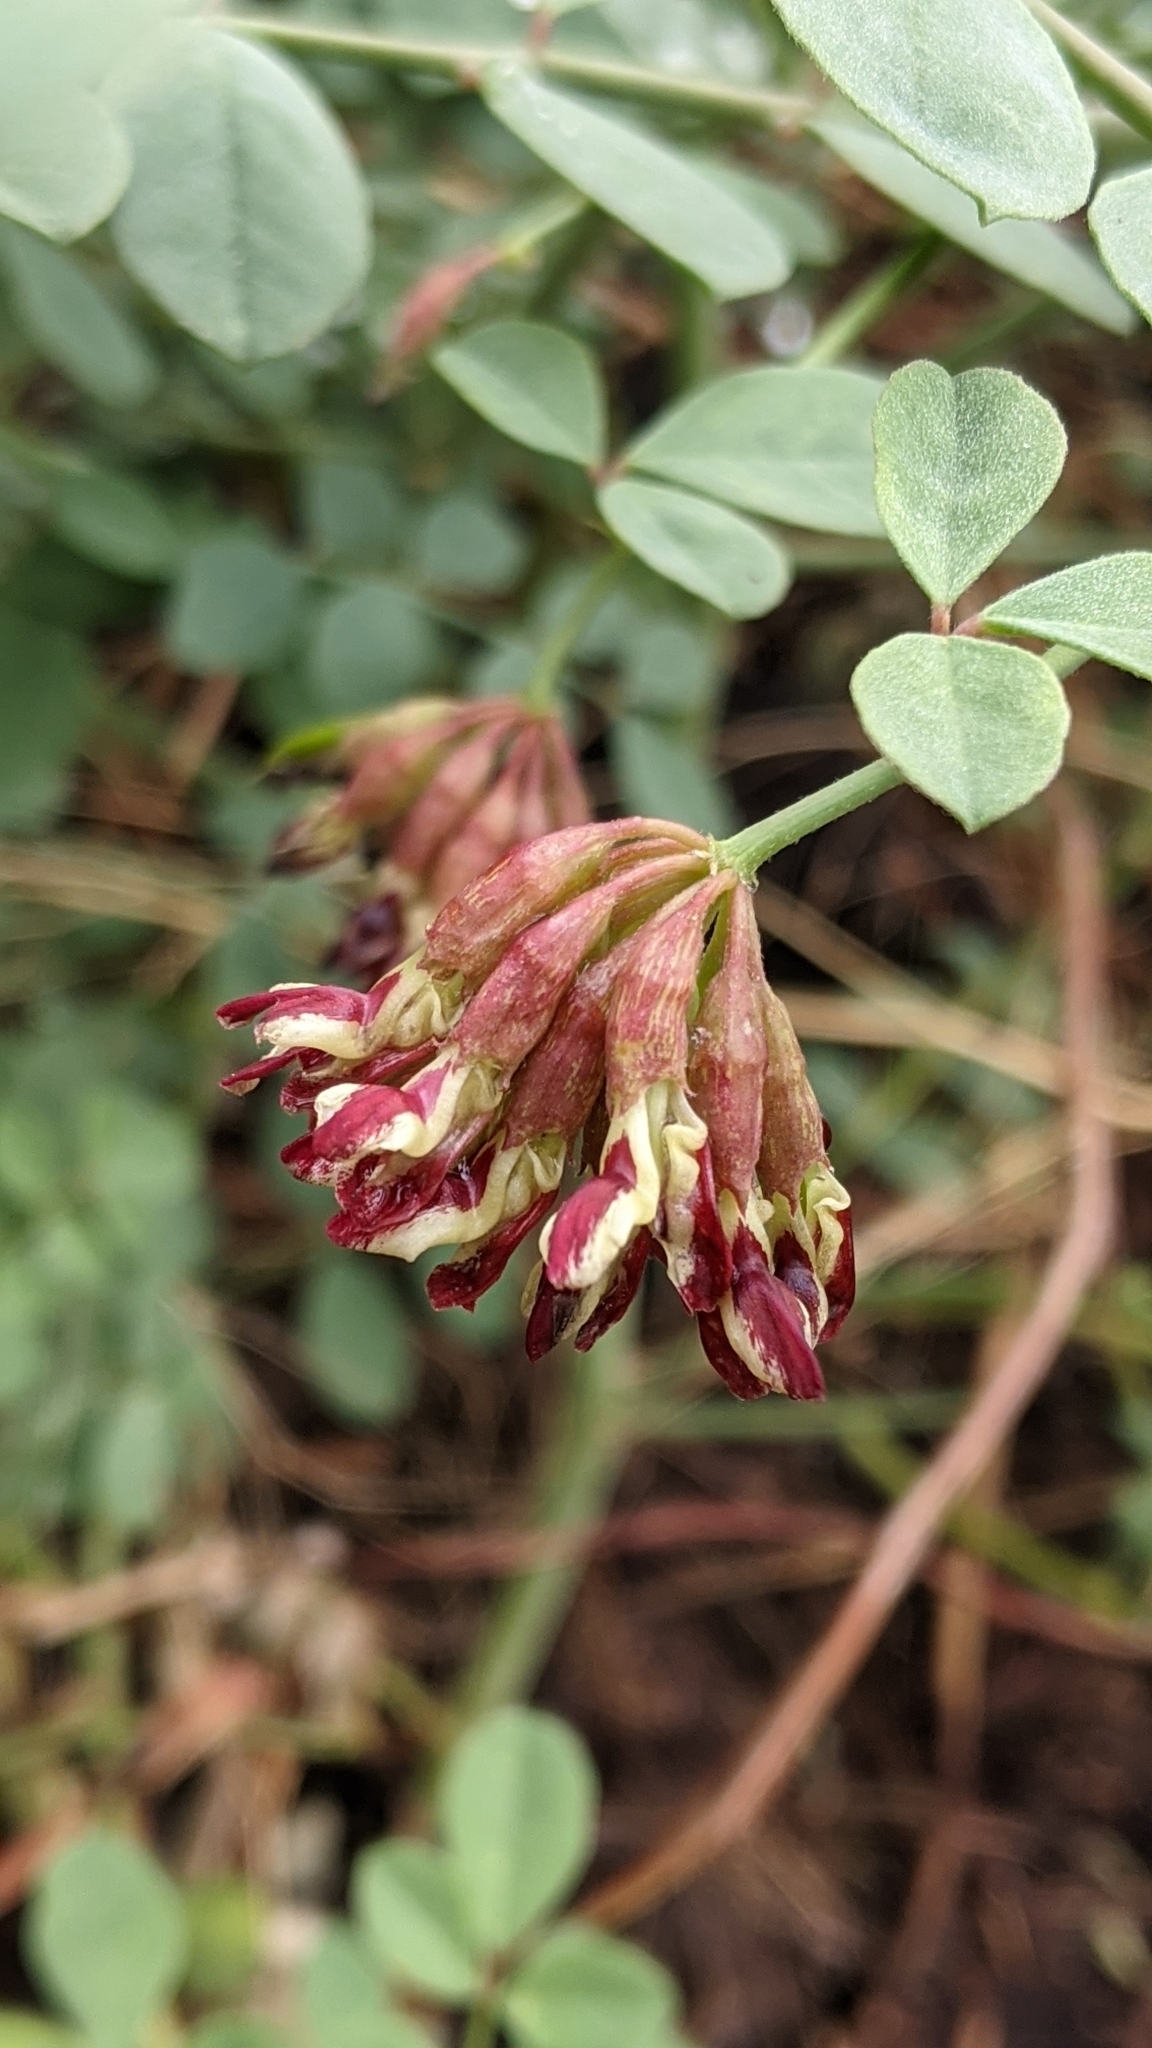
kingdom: Plantae
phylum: Tracheophyta
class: Magnoliopsida
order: Fabales
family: Fabaceae
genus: Hosackia
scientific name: Hosackia crassifolia
